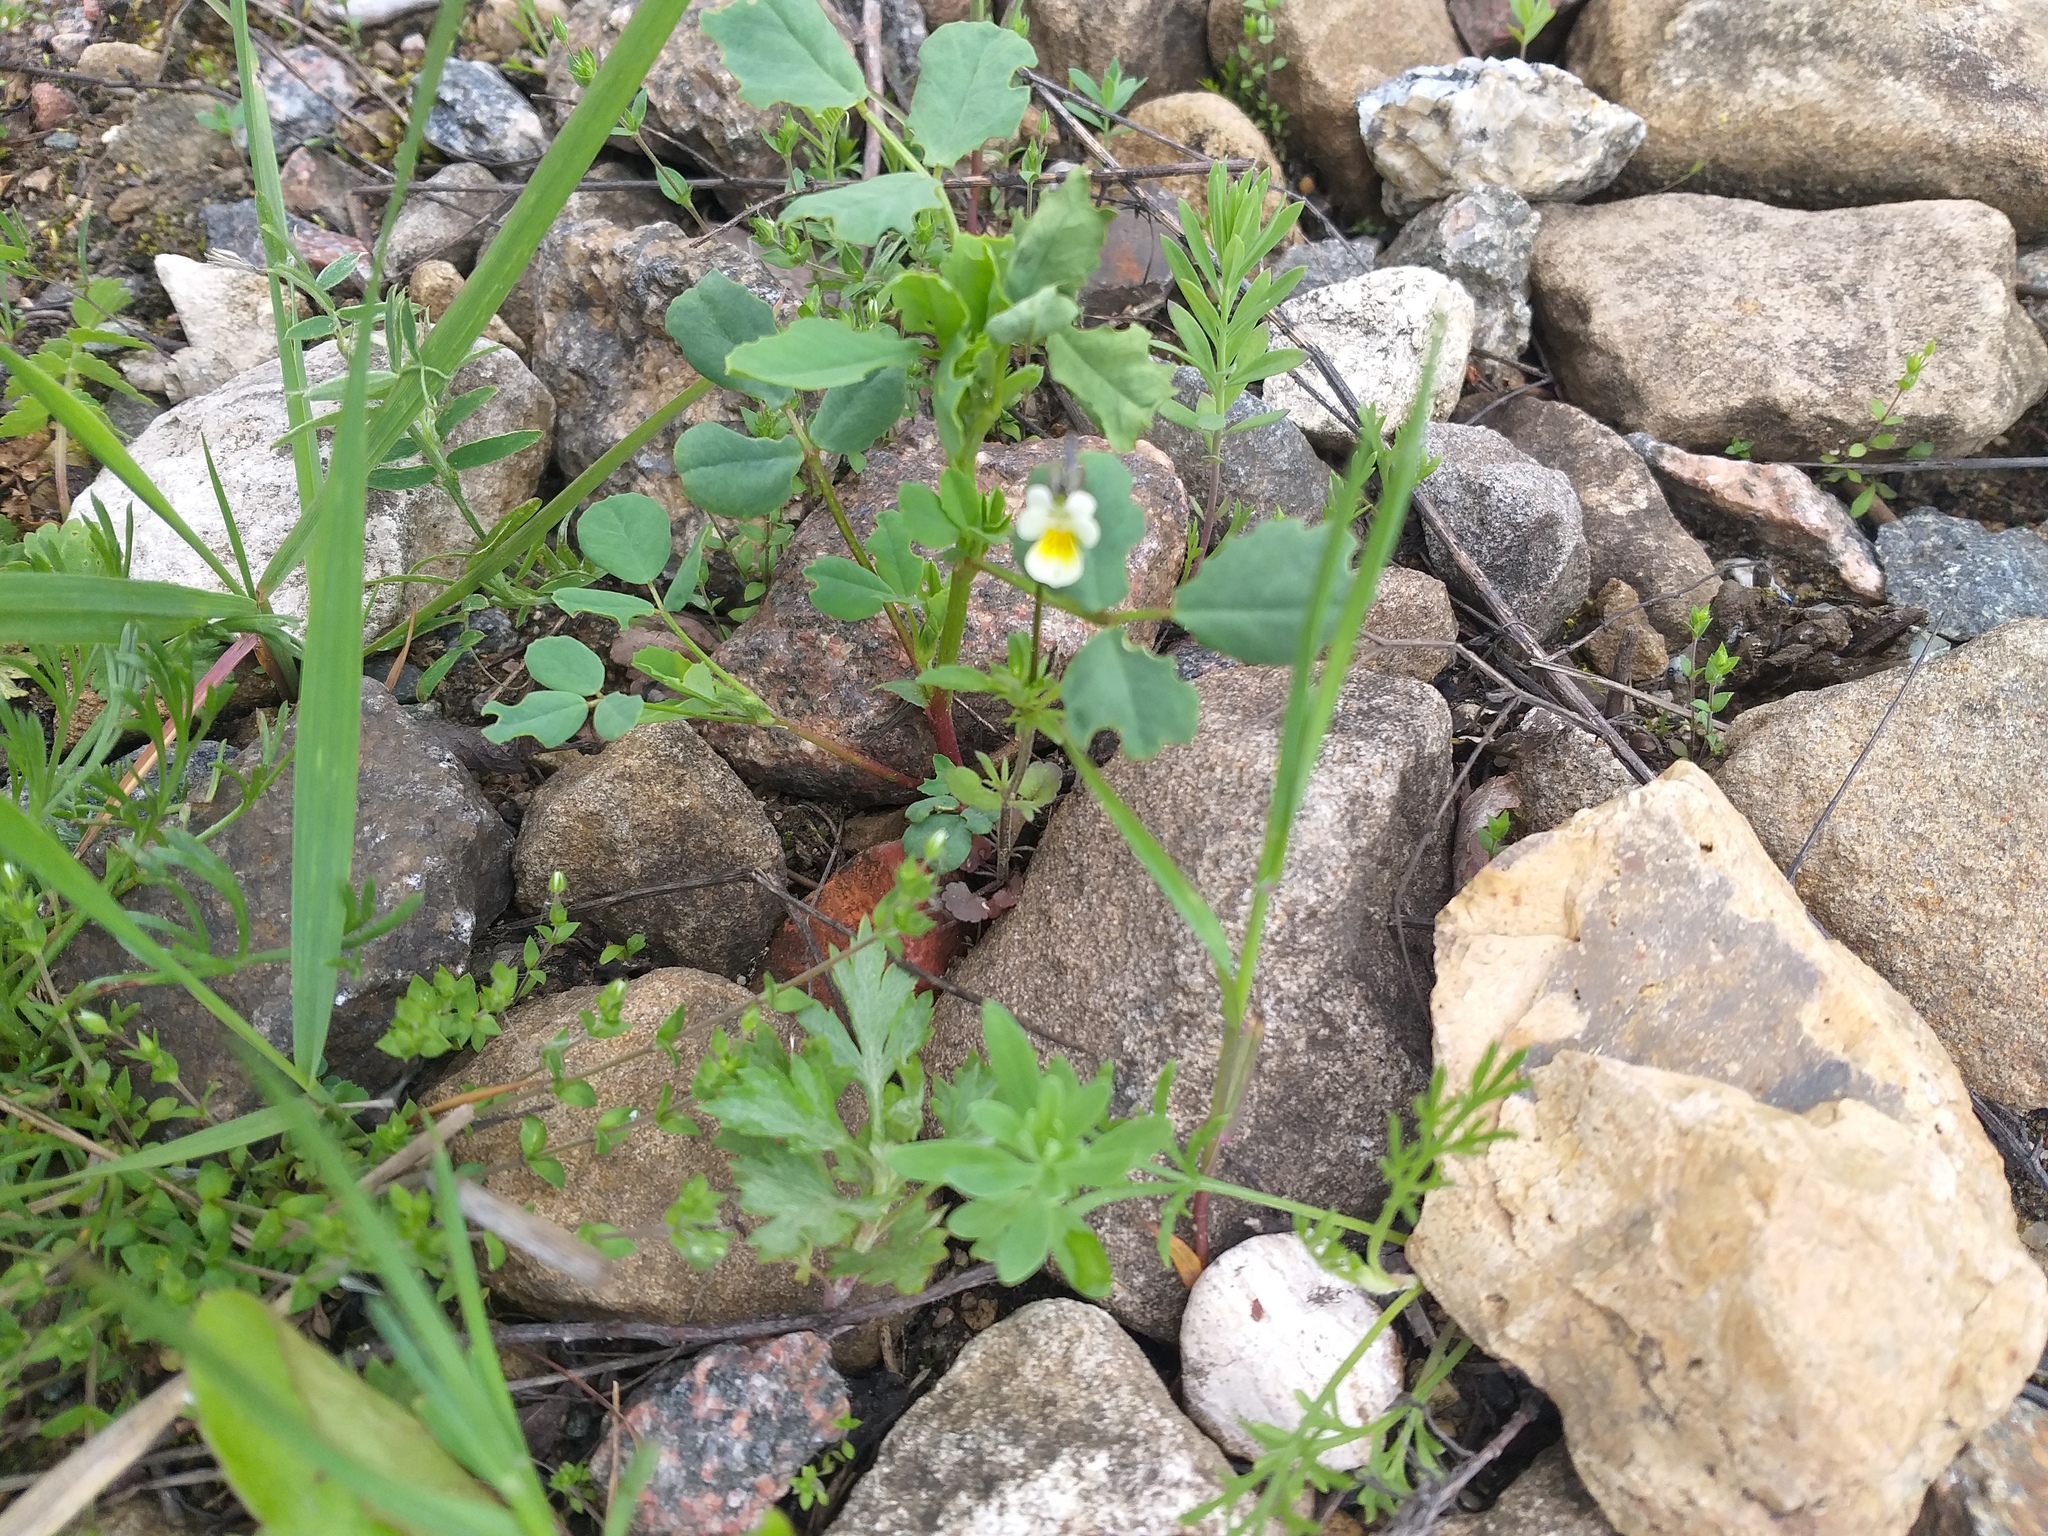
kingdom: Plantae
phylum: Tracheophyta
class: Magnoliopsida
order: Malpighiales
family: Violaceae
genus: Viola
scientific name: Viola arvensis
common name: Field pansy
